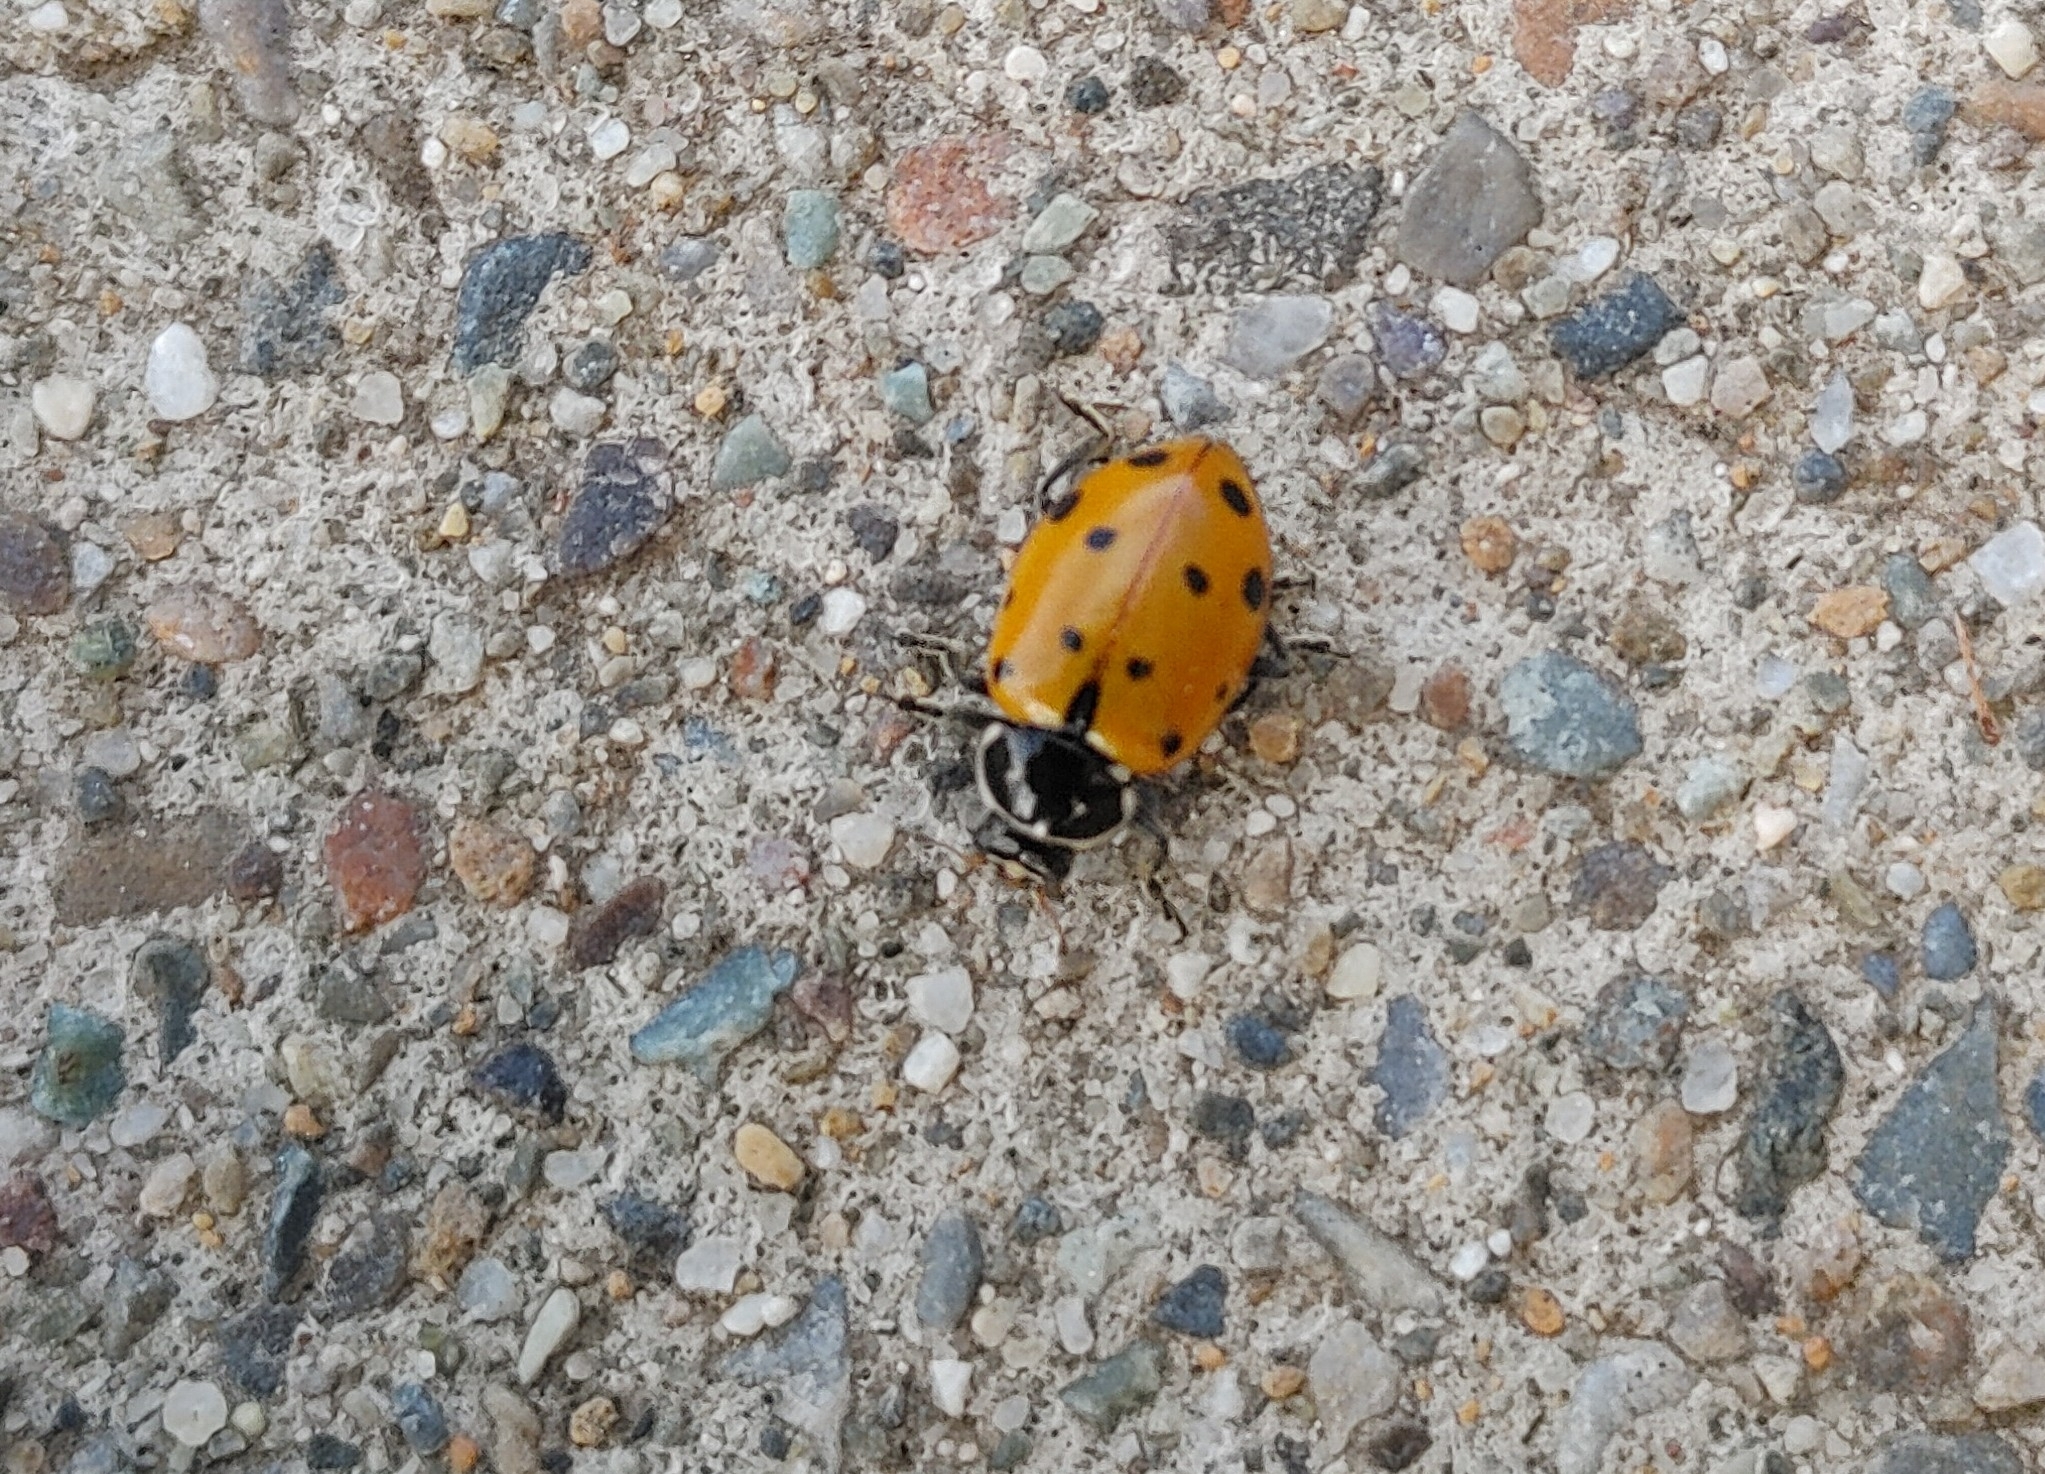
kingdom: Animalia
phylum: Arthropoda
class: Insecta
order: Coleoptera
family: Coccinellidae
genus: Hippodamia
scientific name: Hippodamia variegata
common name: Ladybird beetle
